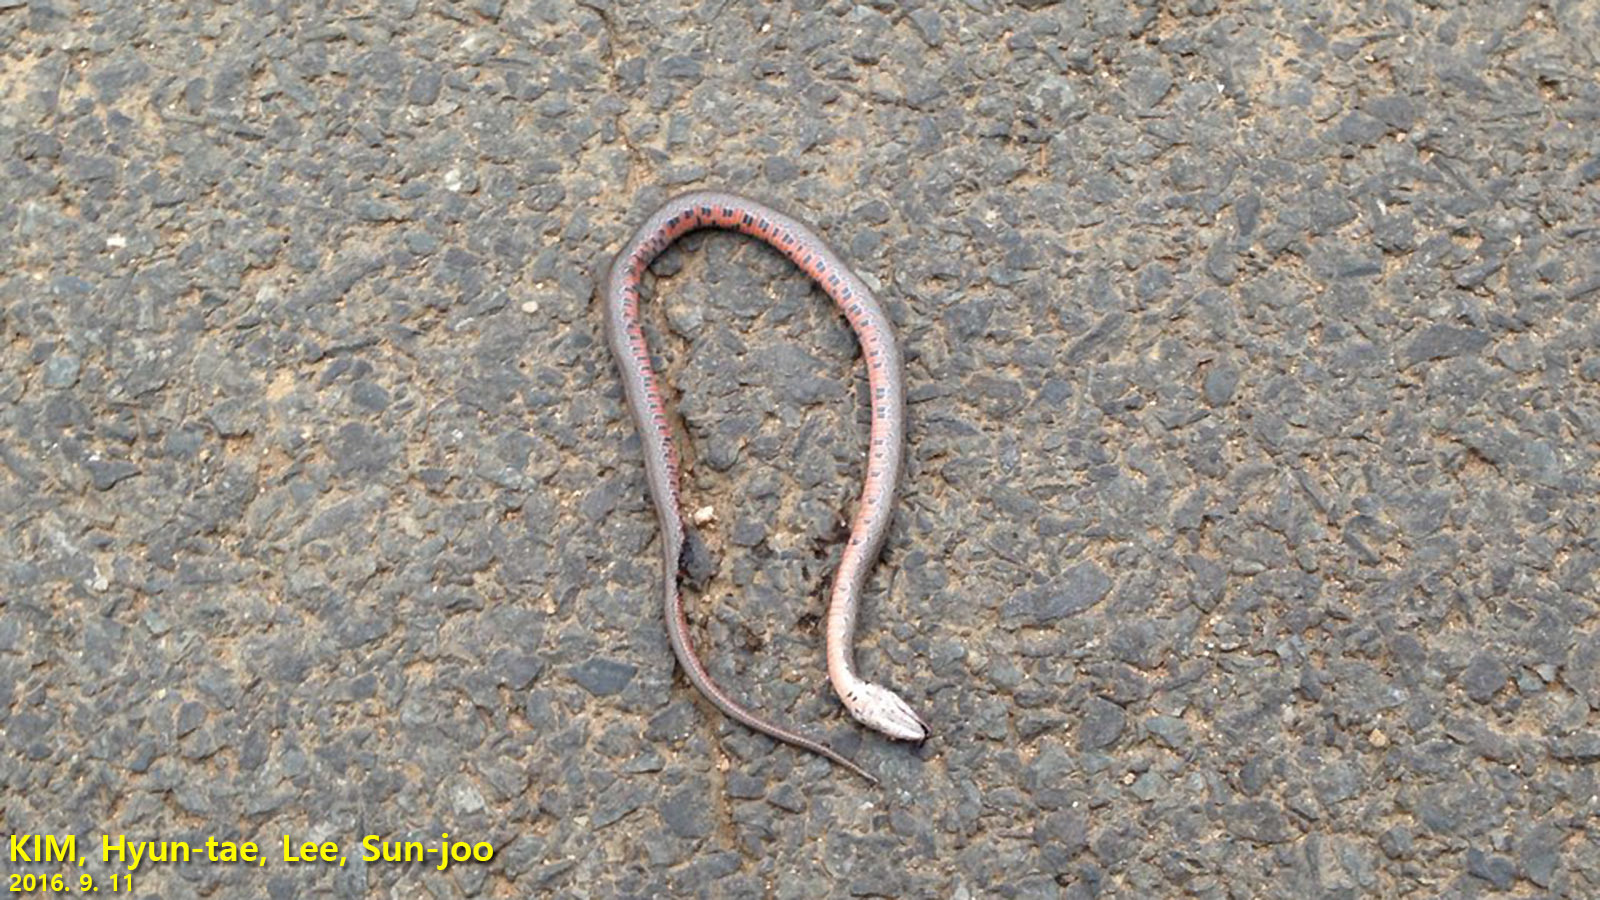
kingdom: Animalia
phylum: Chordata
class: Squamata
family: Colubridae
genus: Oocatochus
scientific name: Oocatochus rufodorsatus
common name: Frog-eating rat snake
